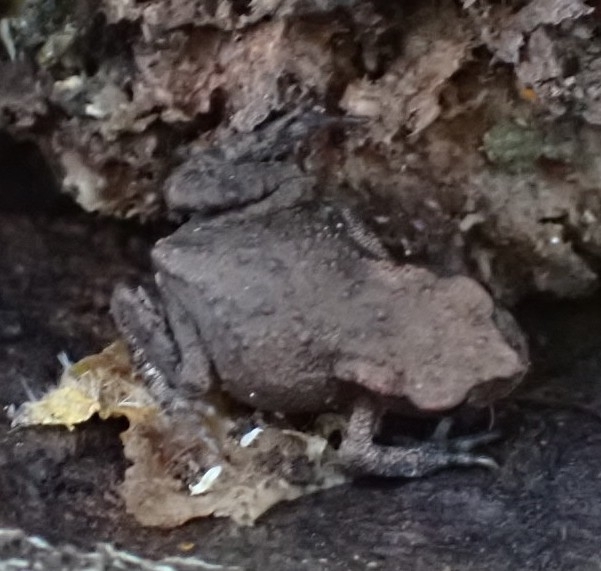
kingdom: Animalia
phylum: Chordata
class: Amphibia
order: Anura
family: Bufonidae
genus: Bufo
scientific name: Bufo bufo
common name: Common toad
